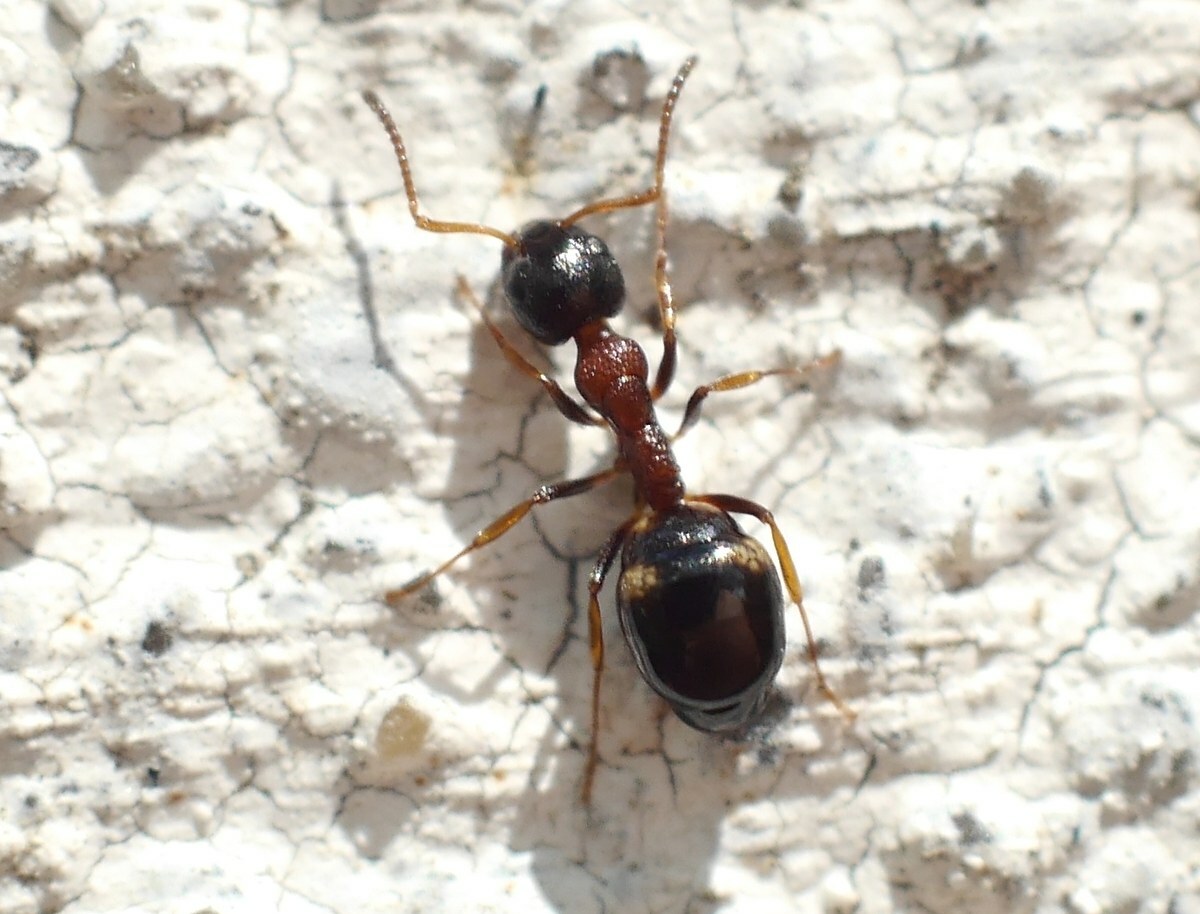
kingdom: Animalia
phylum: Arthropoda
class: Insecta
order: Hymenoptera
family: Formicidae
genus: Dolichoderus
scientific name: Dolichoderus quadripunctatus
